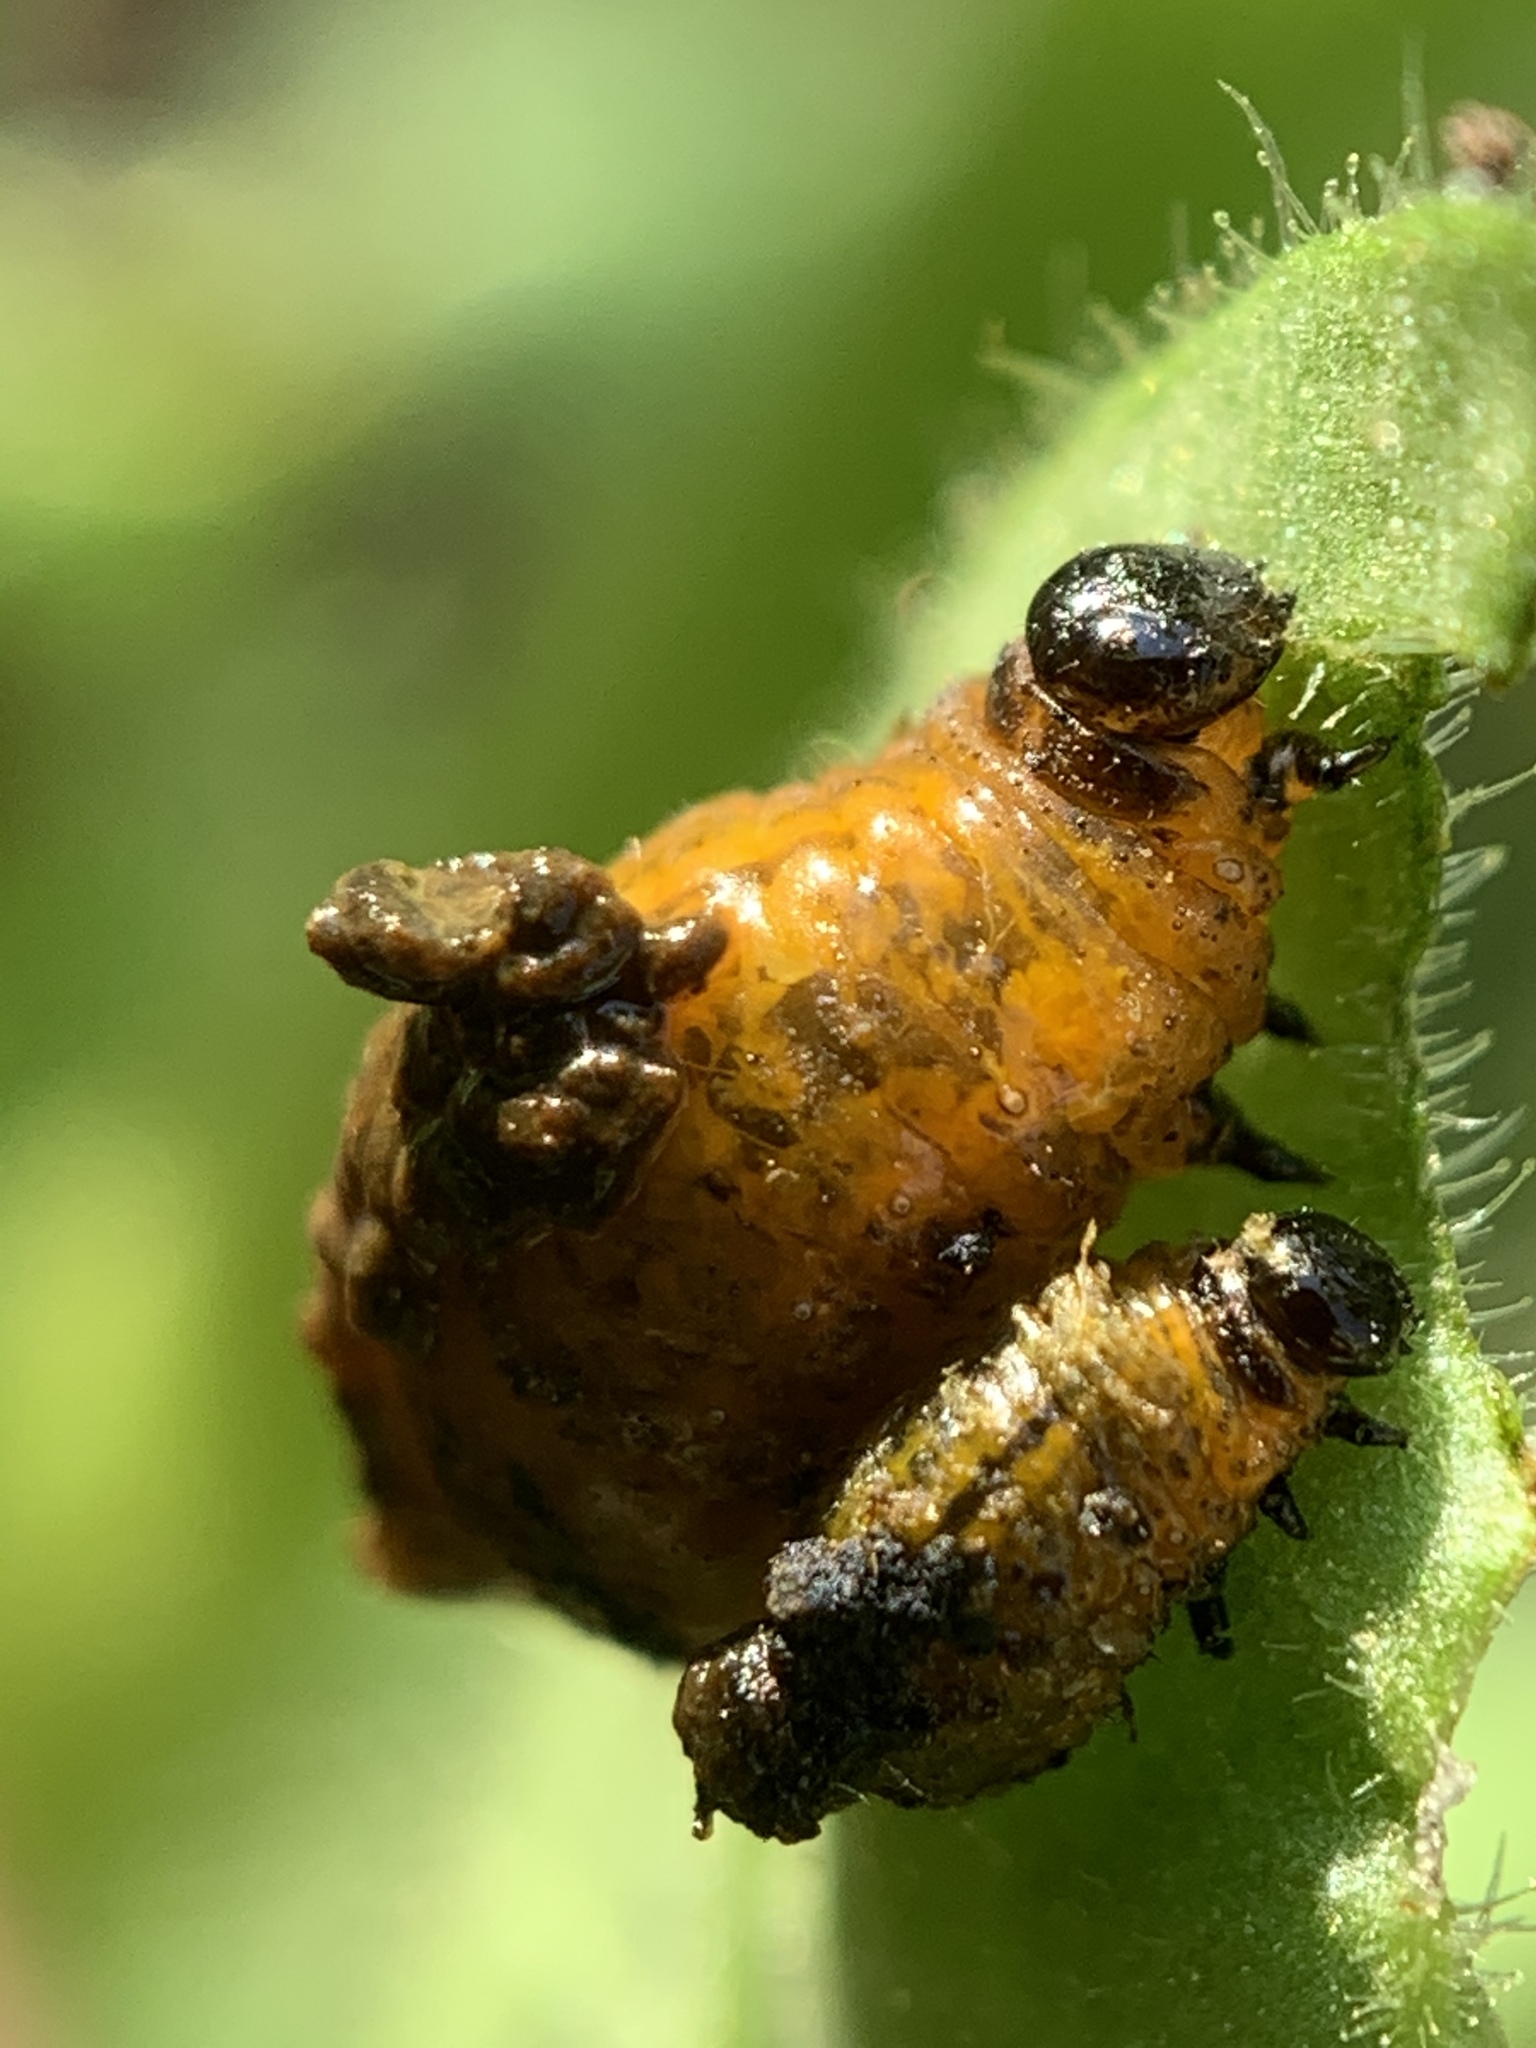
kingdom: Animalia
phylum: Arthropoda
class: Insecta
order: Coleoptera
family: Chrysomelidae
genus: Lema
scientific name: Lema daturaphila
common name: Leaf beetle
